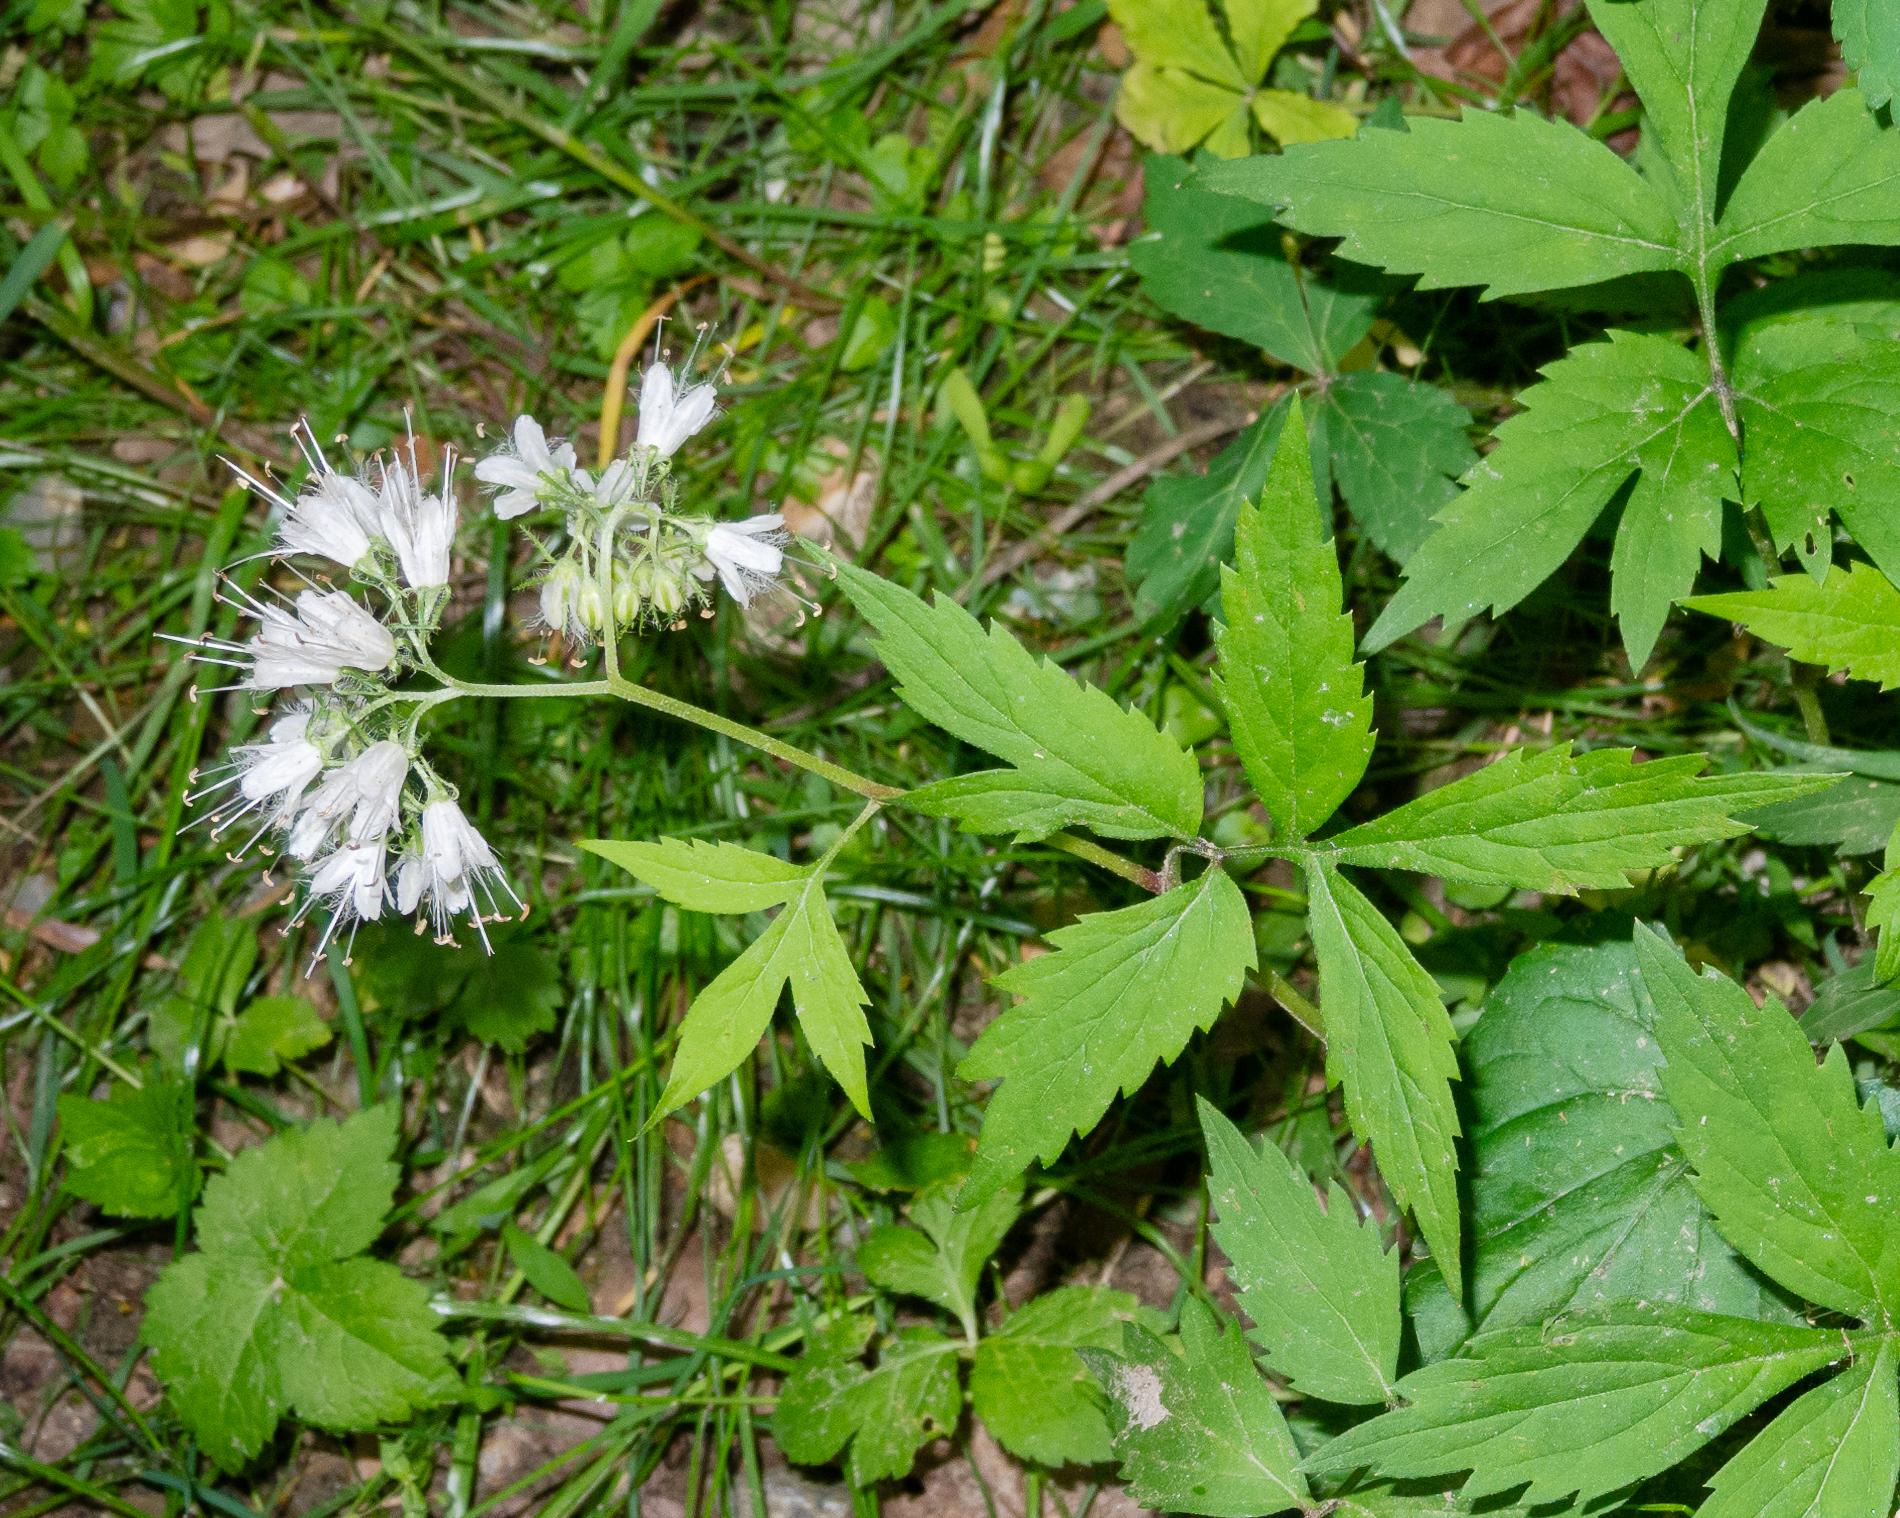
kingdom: Plantae
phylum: Tracheophyta
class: Magnoliopsida
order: Boraginales
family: Hydrophyllaceae
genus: Hydrophyllum
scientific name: Hydrophyllum virginianum
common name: Virginia waterleaf
